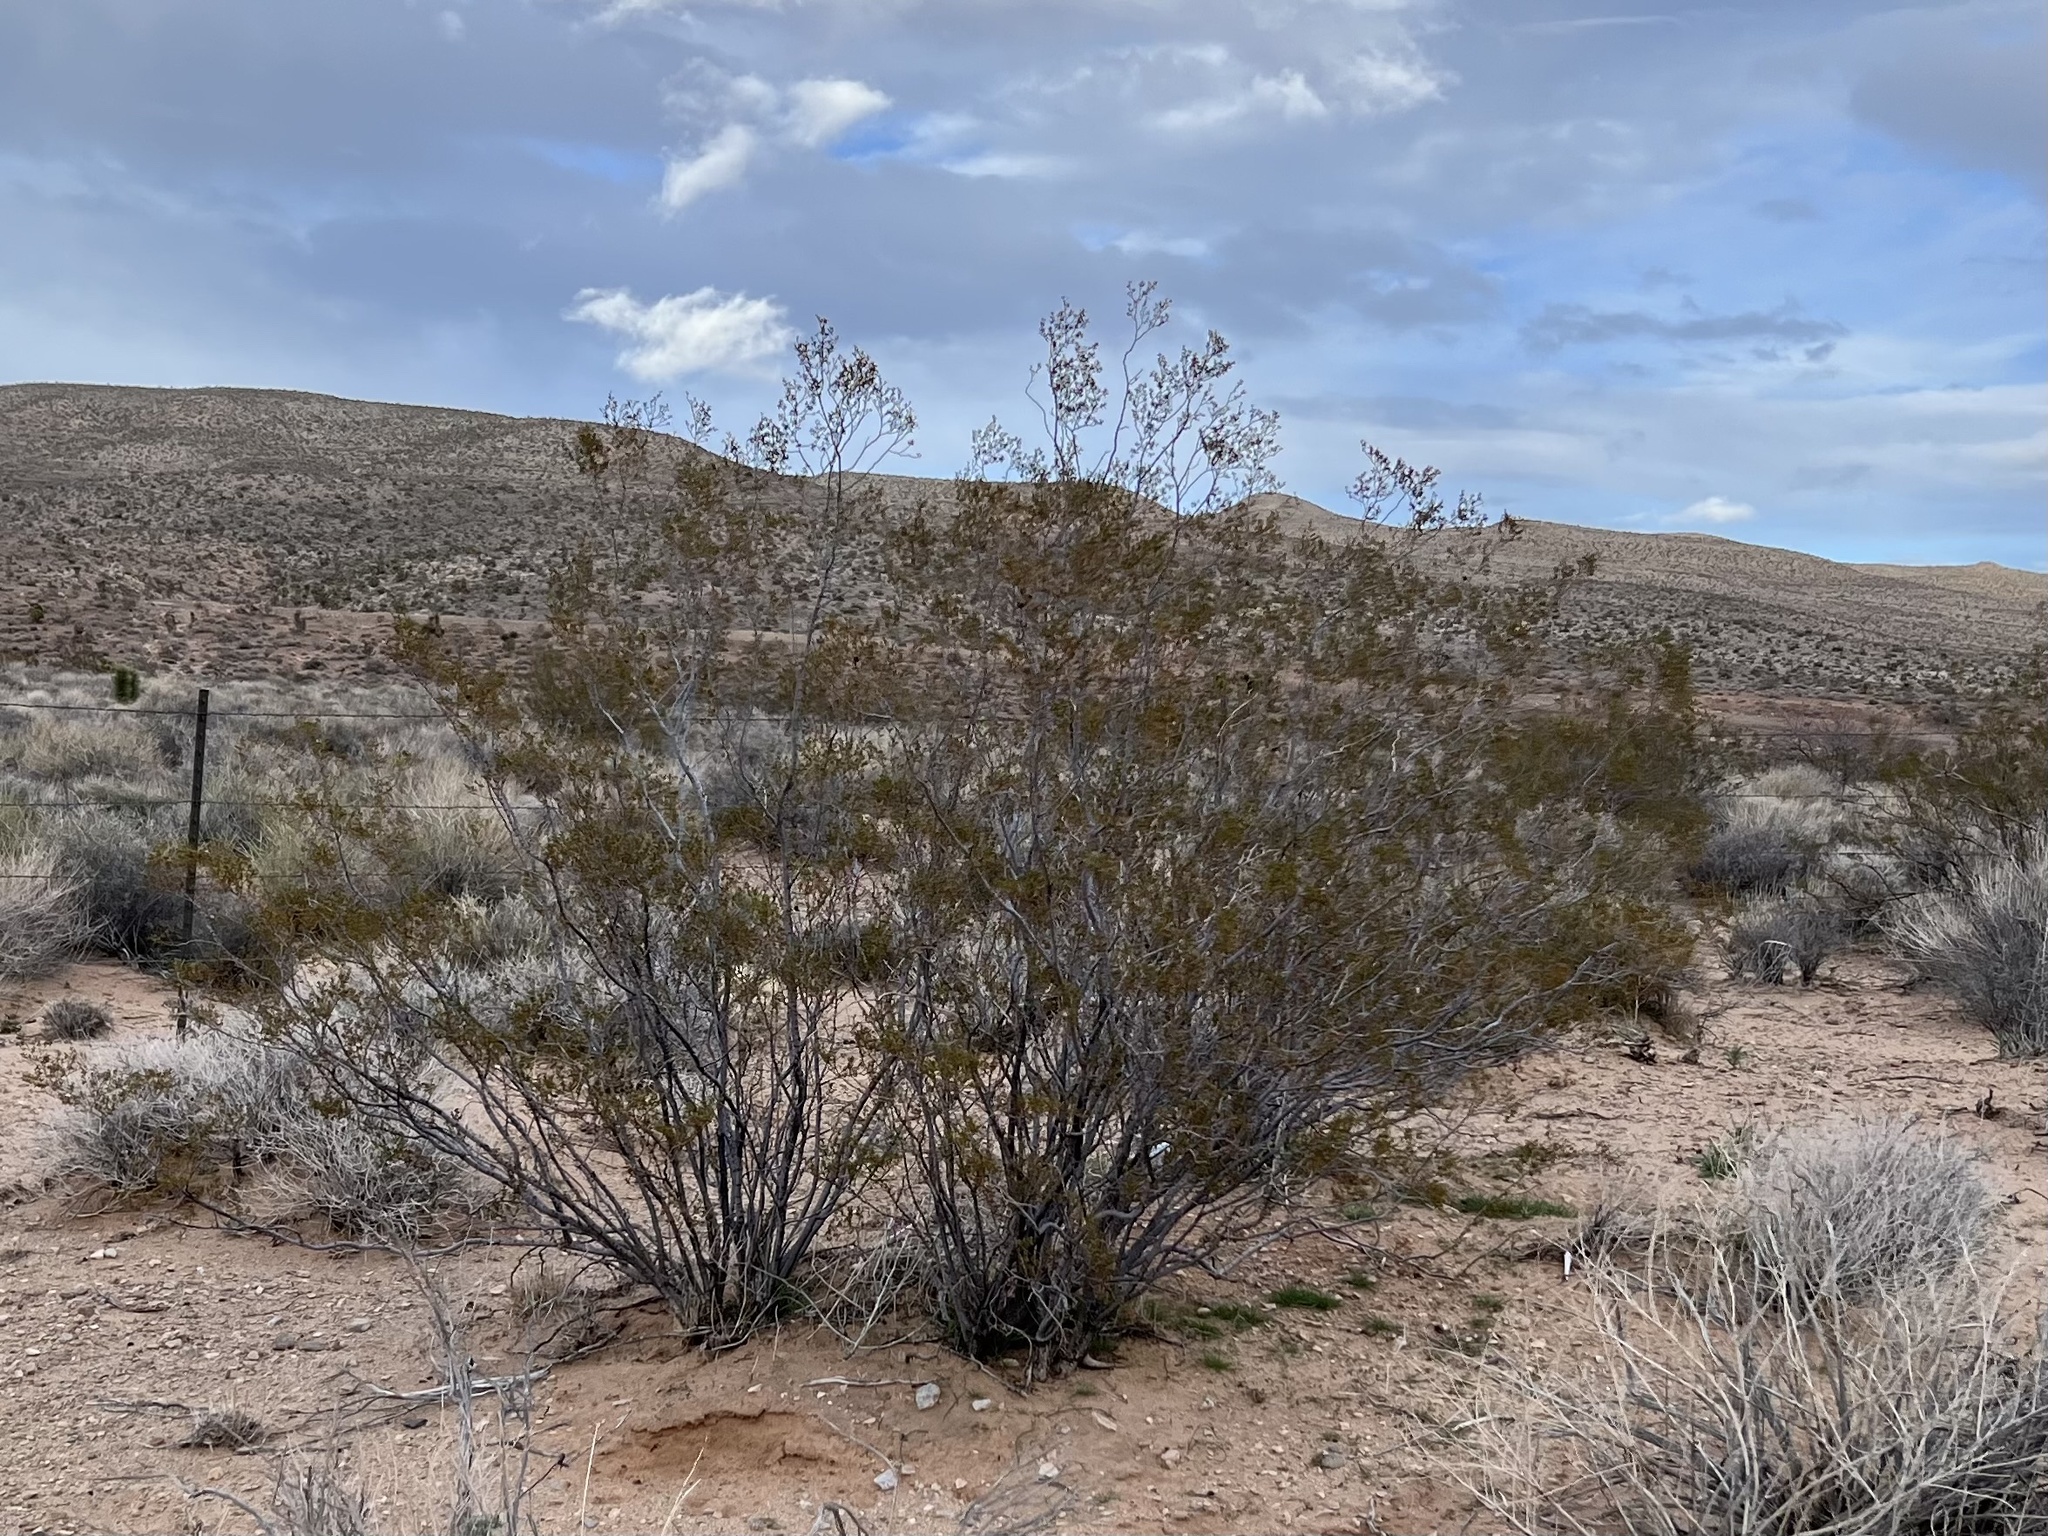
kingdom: Plantae
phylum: Tracheophyta
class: Magnoliopsida
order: Zygophyllales
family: Zygophyllaceae
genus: Larrea
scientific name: Larrea tridentata
